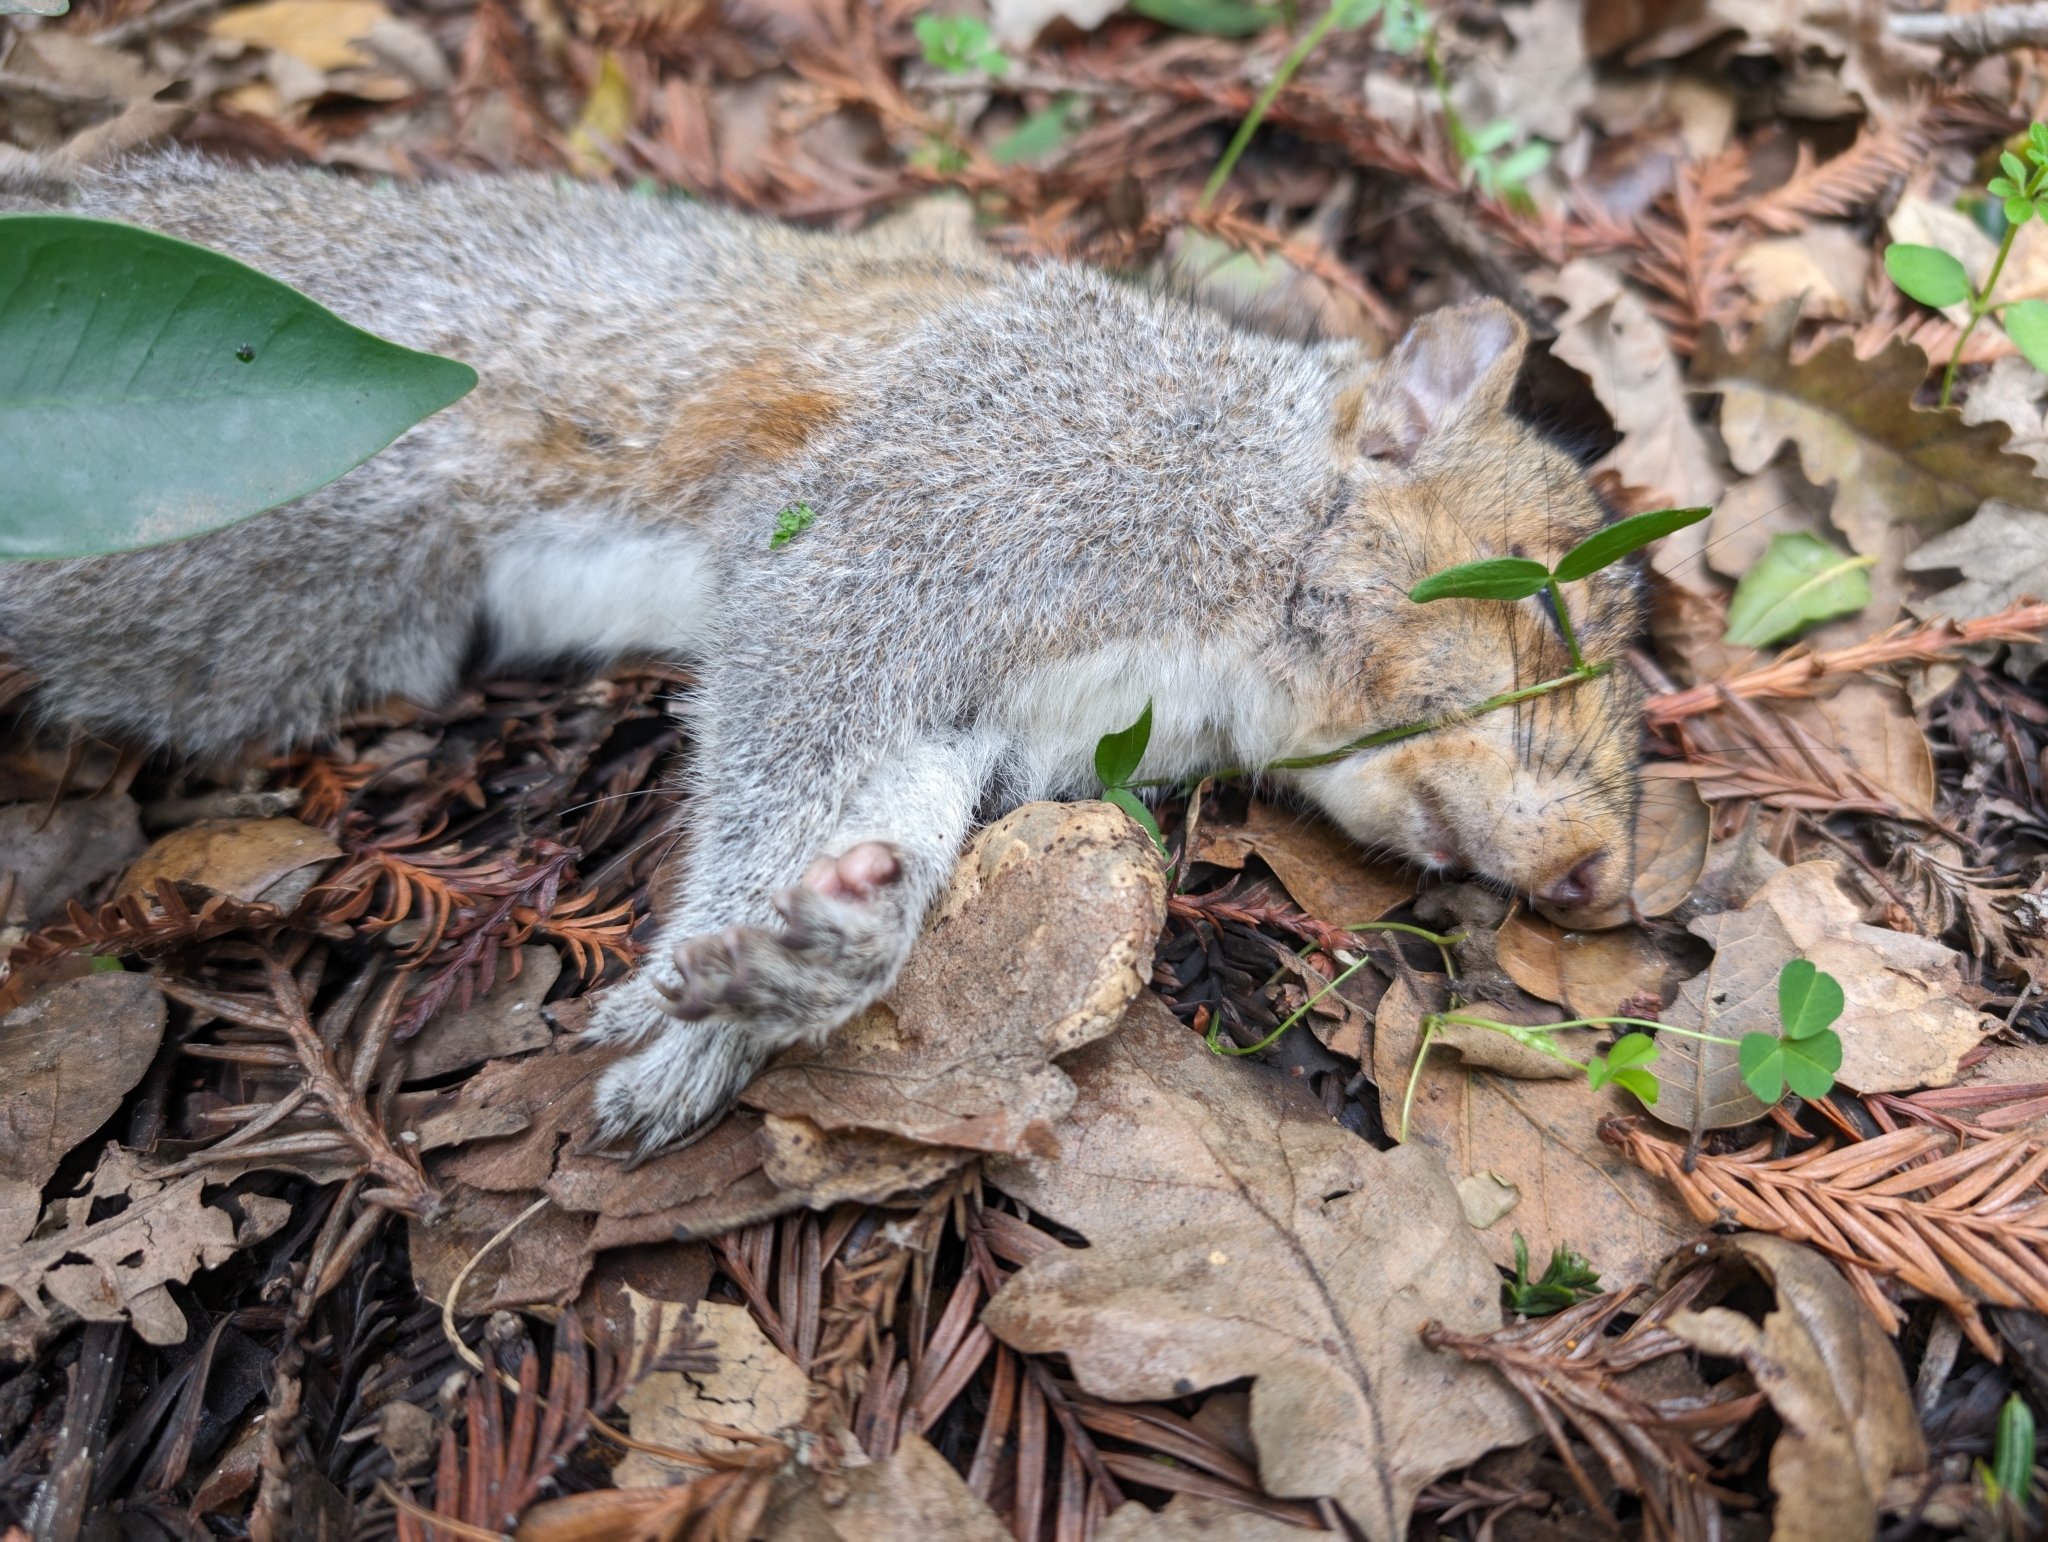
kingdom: Animalia
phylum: Chordata
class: Mammalia
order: Rodentia
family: Sciuridae
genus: Sciurus
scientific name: Sciurus carolinensis
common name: Eastern gray squirrel
